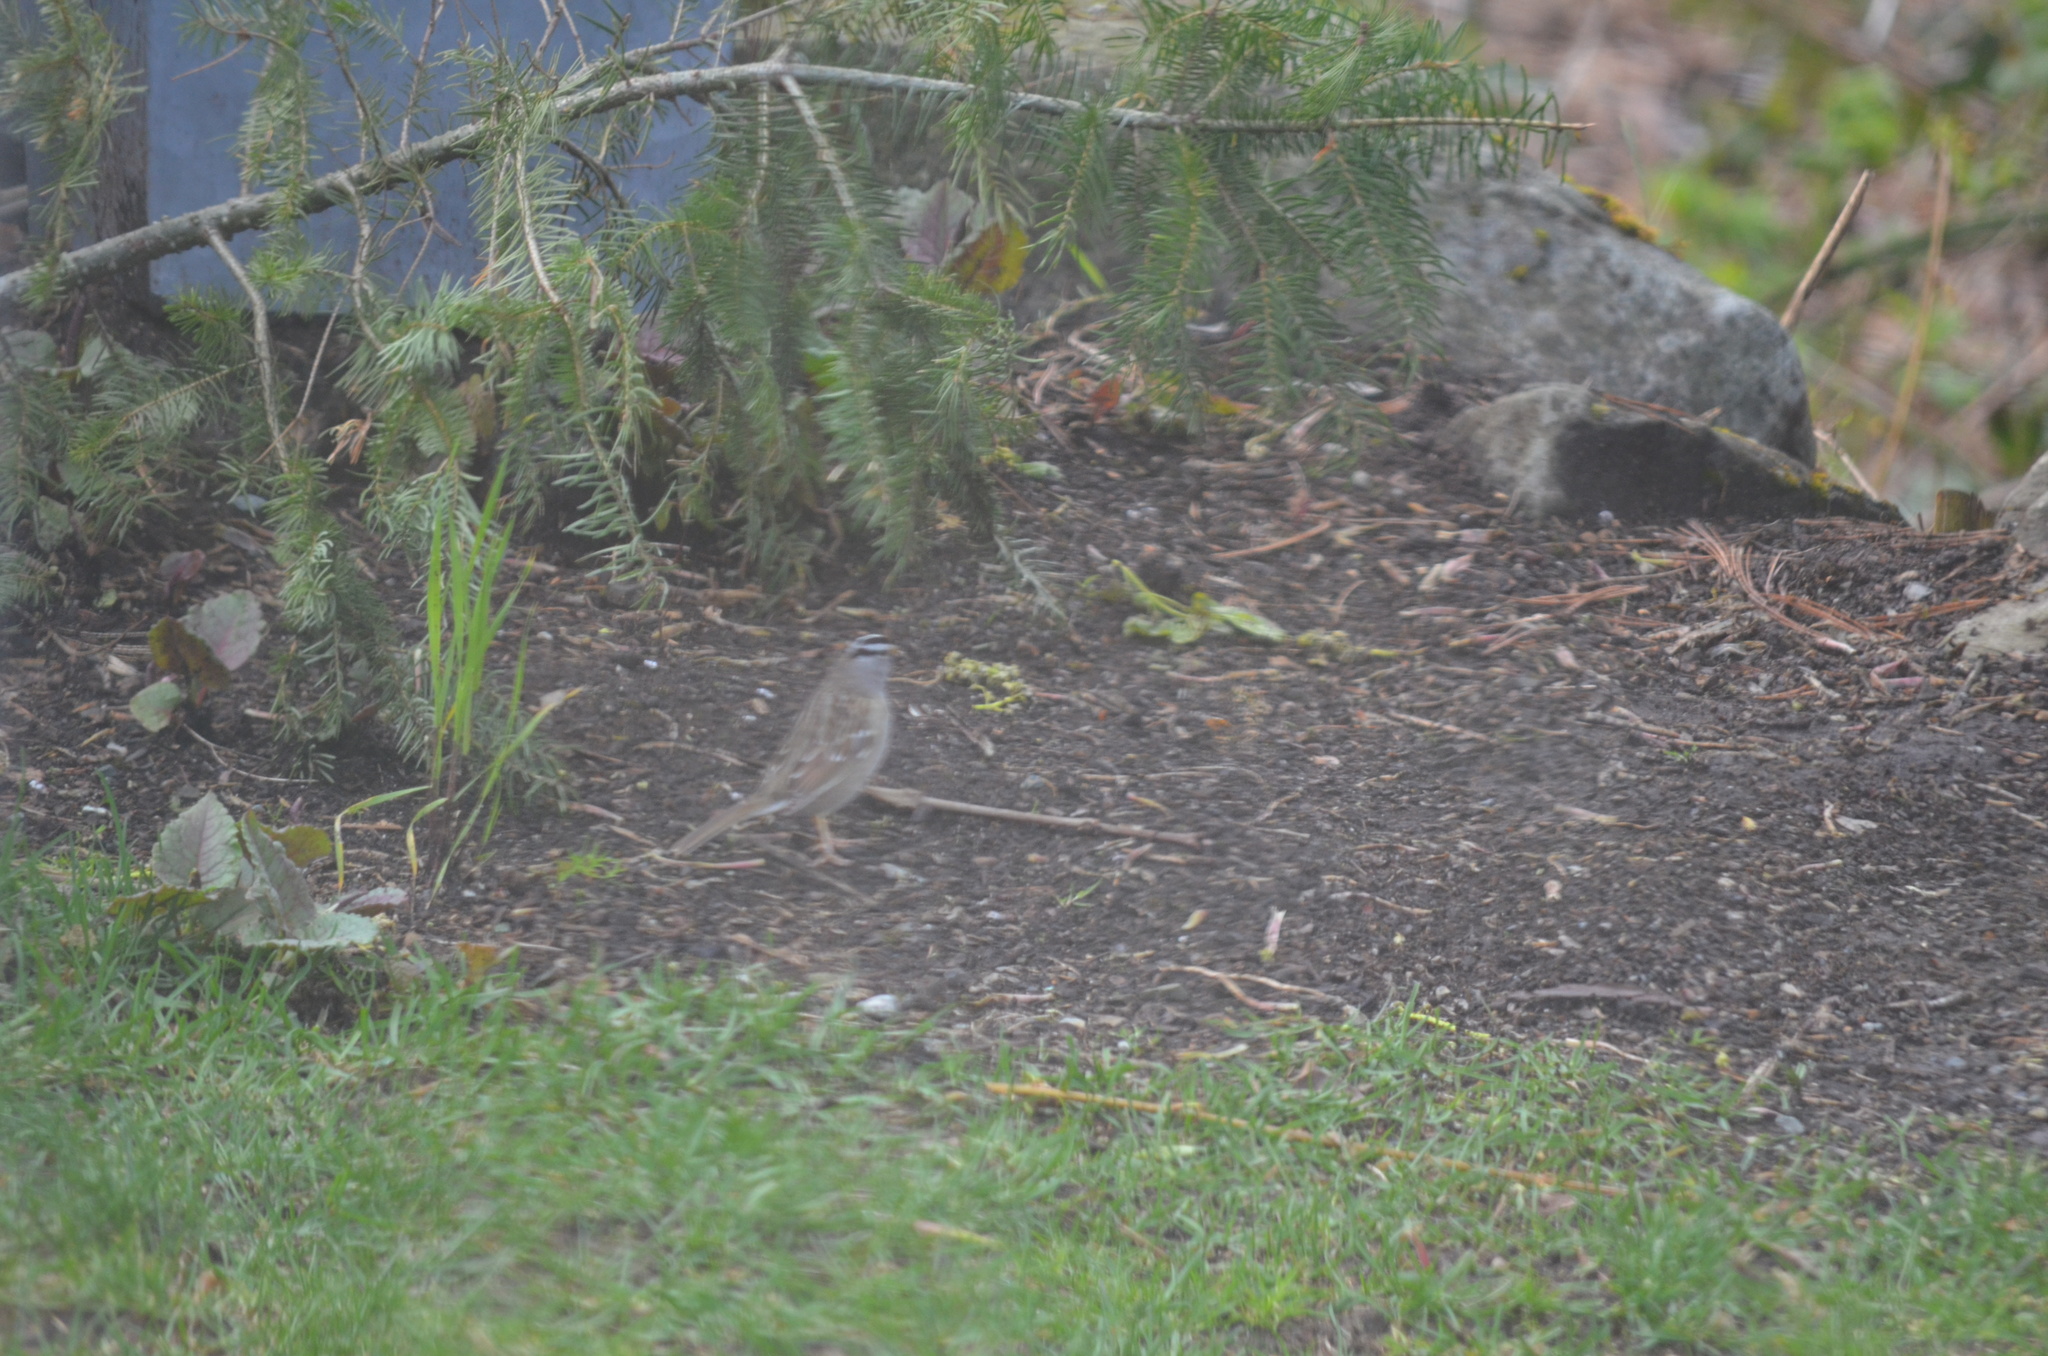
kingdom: Animalia
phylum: Chordata
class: Aves
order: Passeriformes
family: Passerellidae
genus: Zonotrichia
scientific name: Zonotrichia leucophrys
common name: White-crowned sparrow
